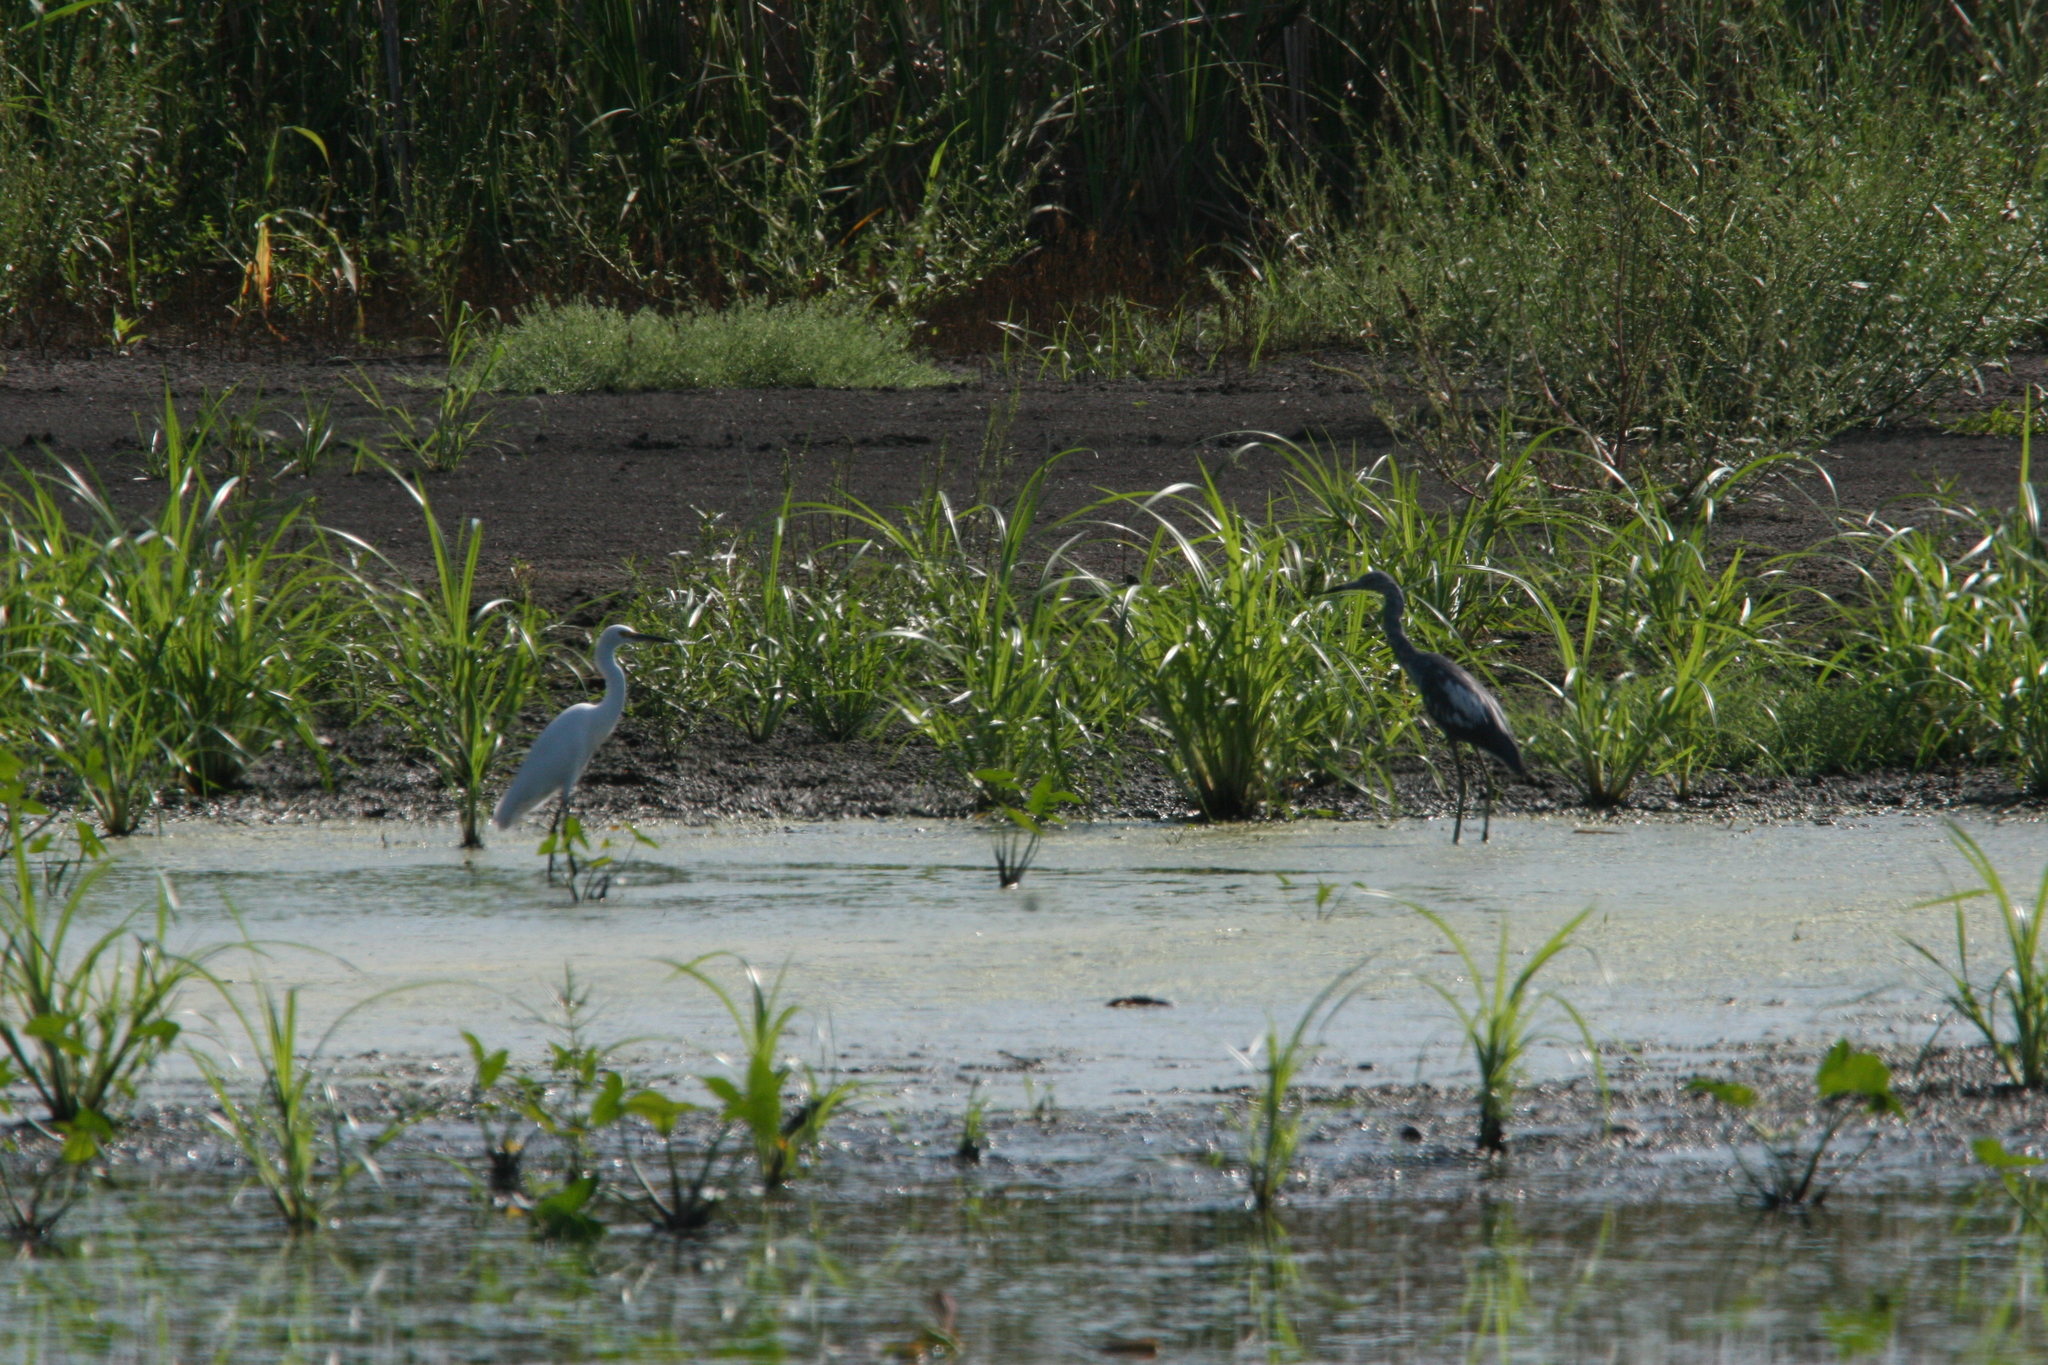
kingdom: Animalia
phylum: Chordata
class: Aves
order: Pelecaniformes
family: Ardeidae
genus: Egretta
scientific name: Egretta thula
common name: Snowy egret
